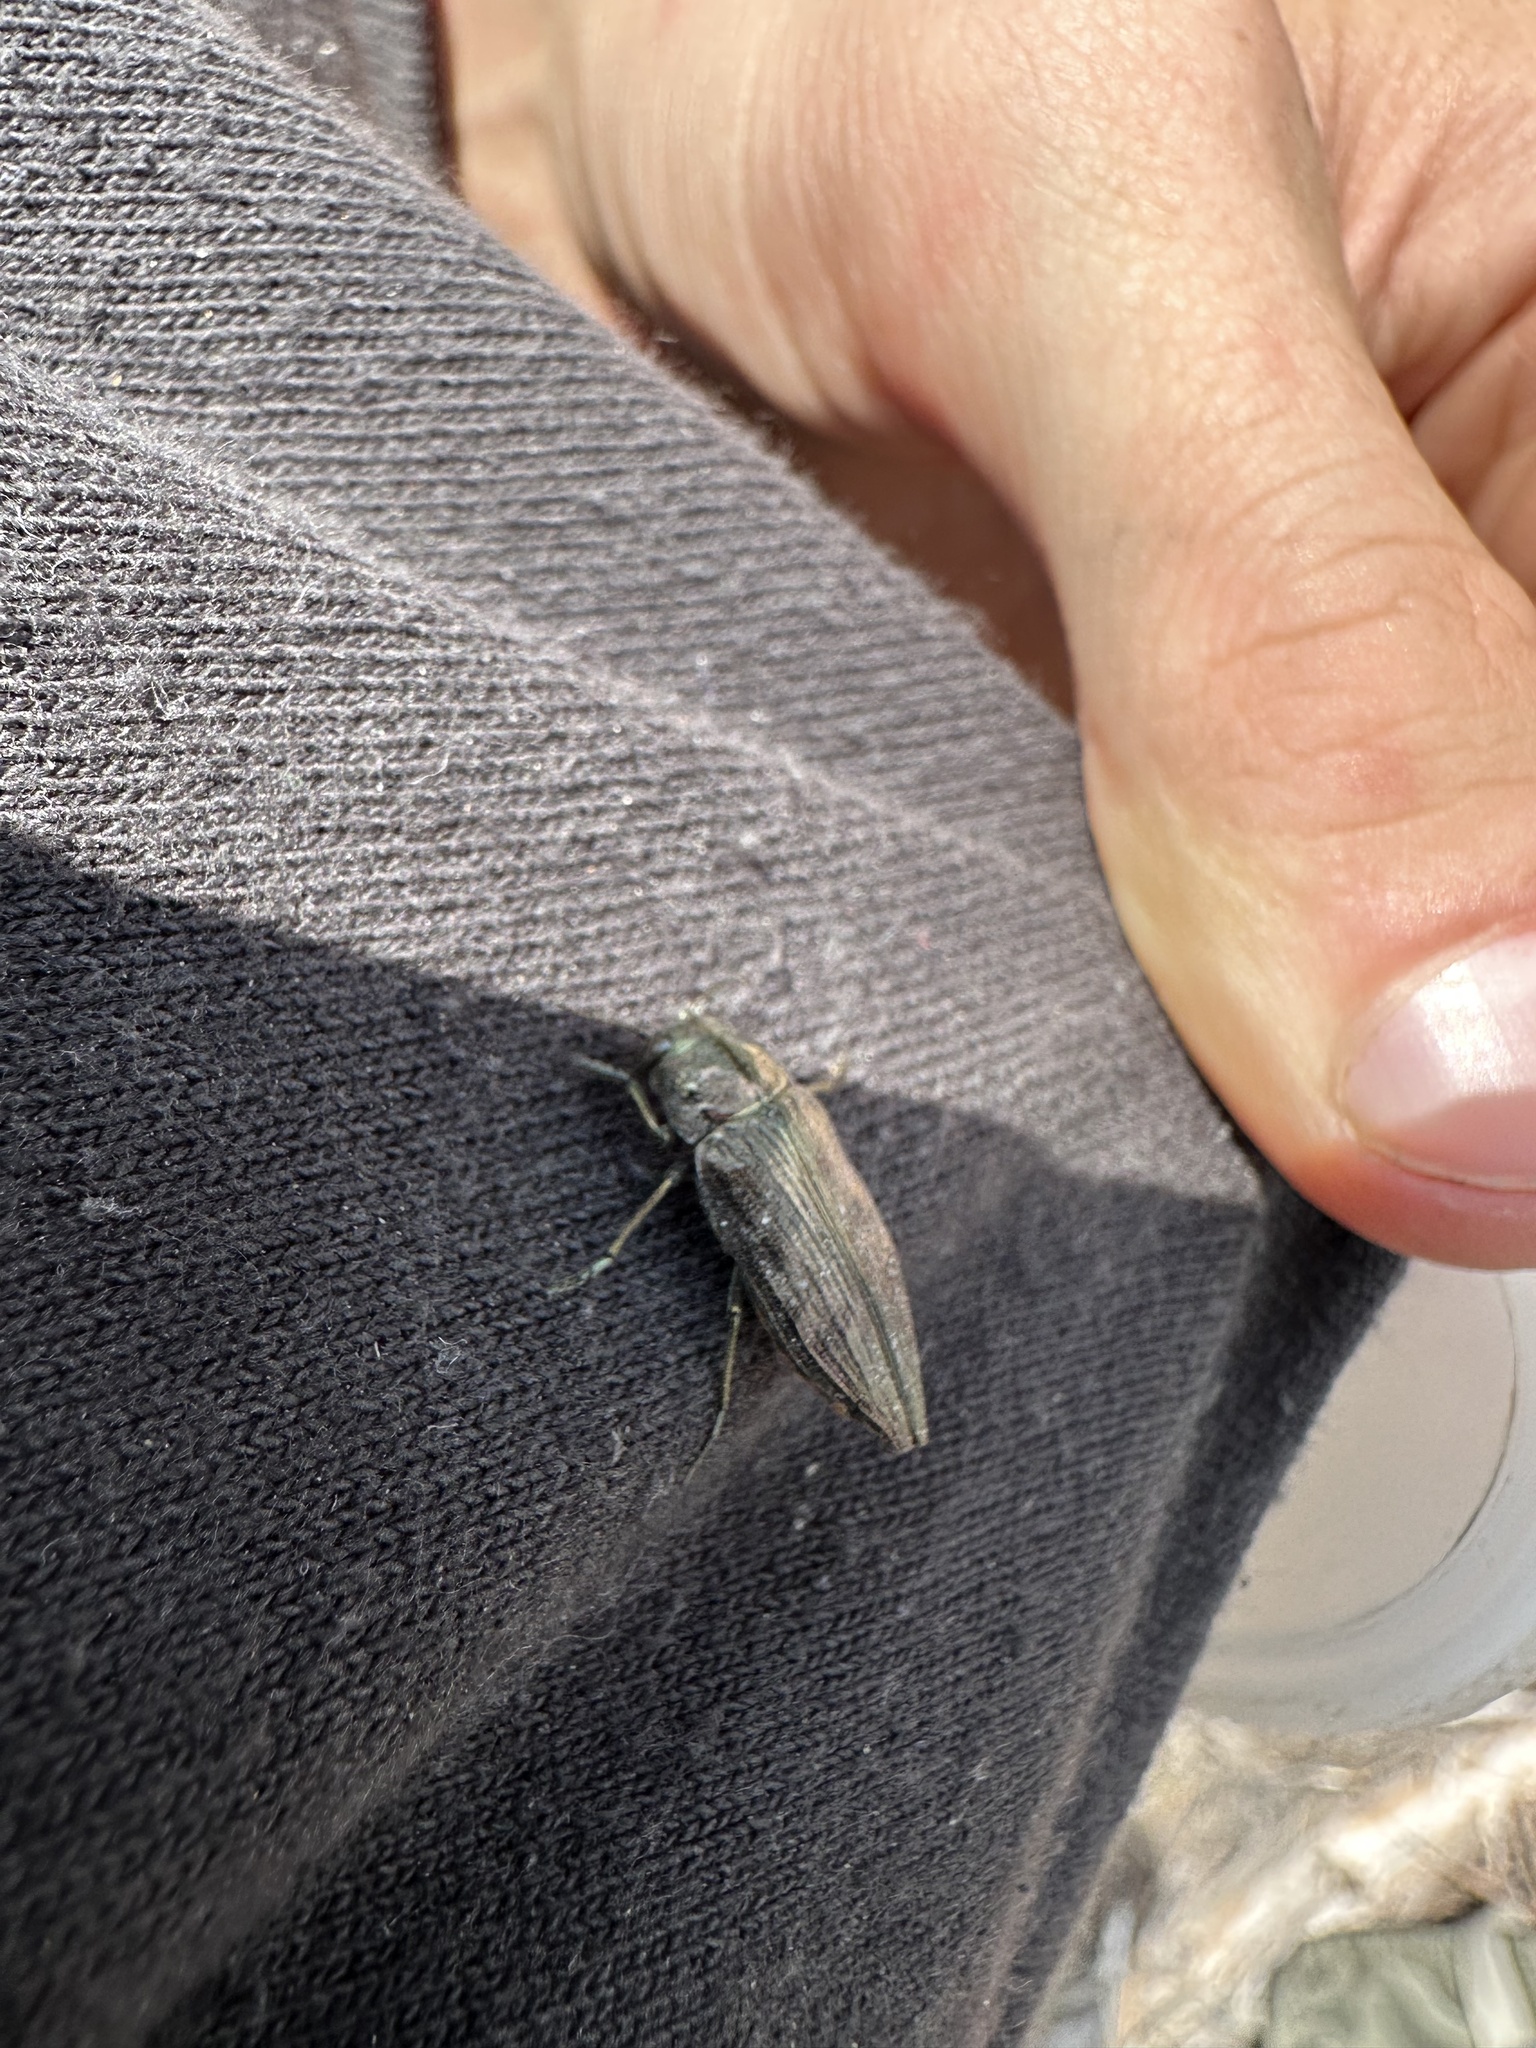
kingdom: Animalia
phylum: Arthropoda
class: Insecta
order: Coleoptera
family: Buprestidae
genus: Buprestis
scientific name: Buprestis maculativentris
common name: Spotted-belly buprestid beetle
